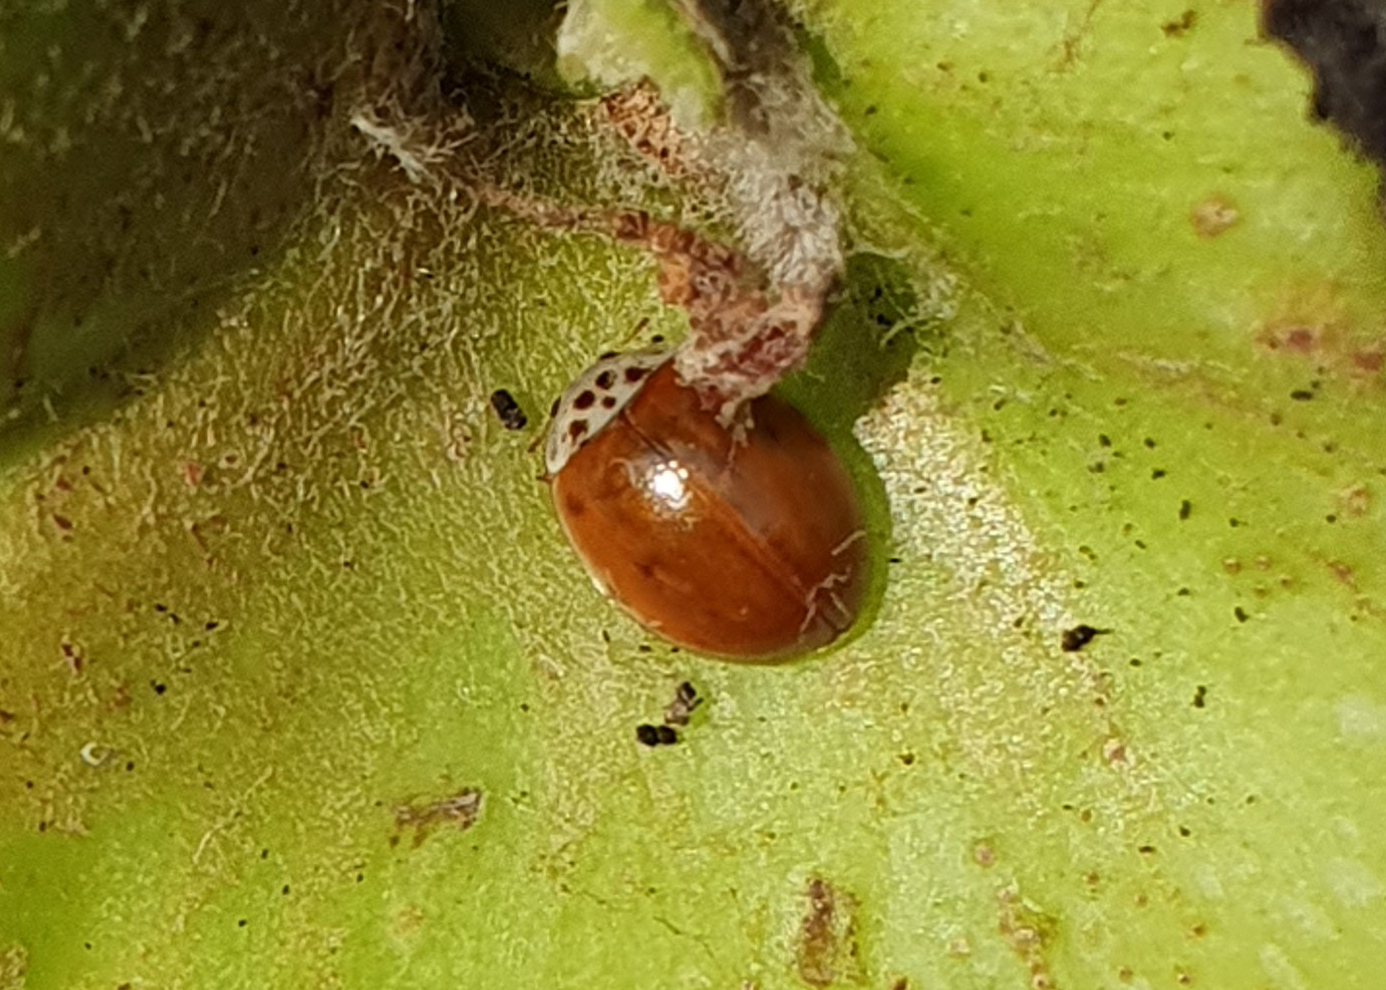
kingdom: Animalia
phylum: Arthropoda
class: Insecta
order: Coleoptera
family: Coccinellidae
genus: Adalia
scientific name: Adalia decempunctata
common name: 10-spot ladybird
